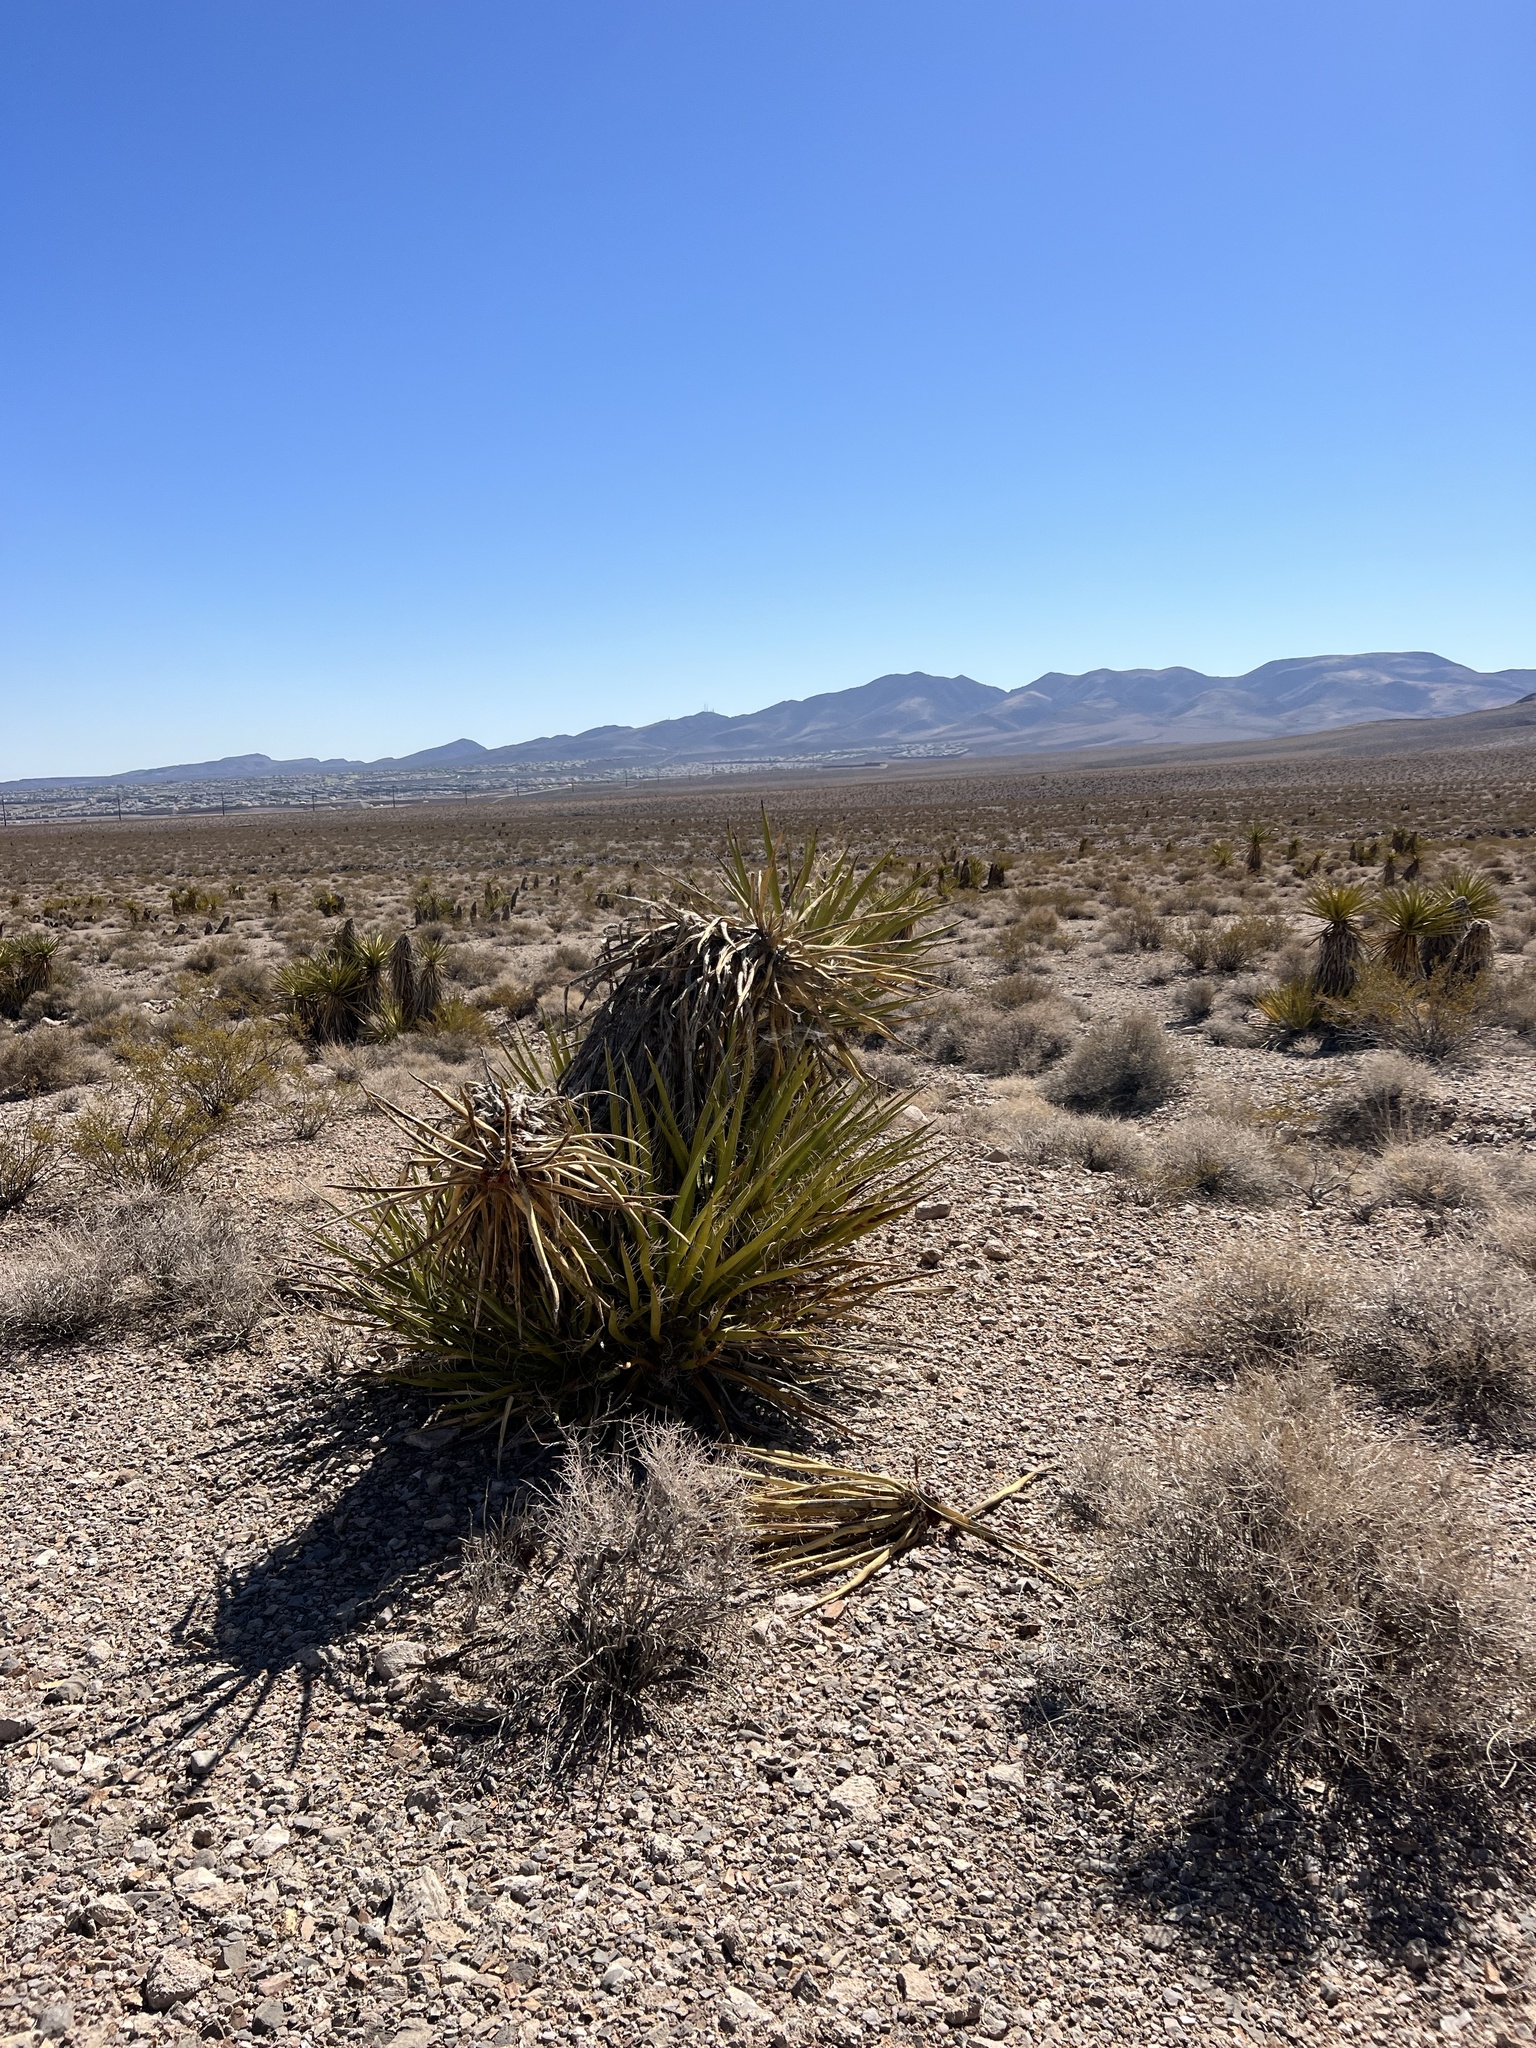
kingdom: Plantae
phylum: Tracheophyta
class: Liliopsida
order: Asparagales
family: Asparagaceae
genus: Yucca
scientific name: Yucca schidigera
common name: Mojave yucca
